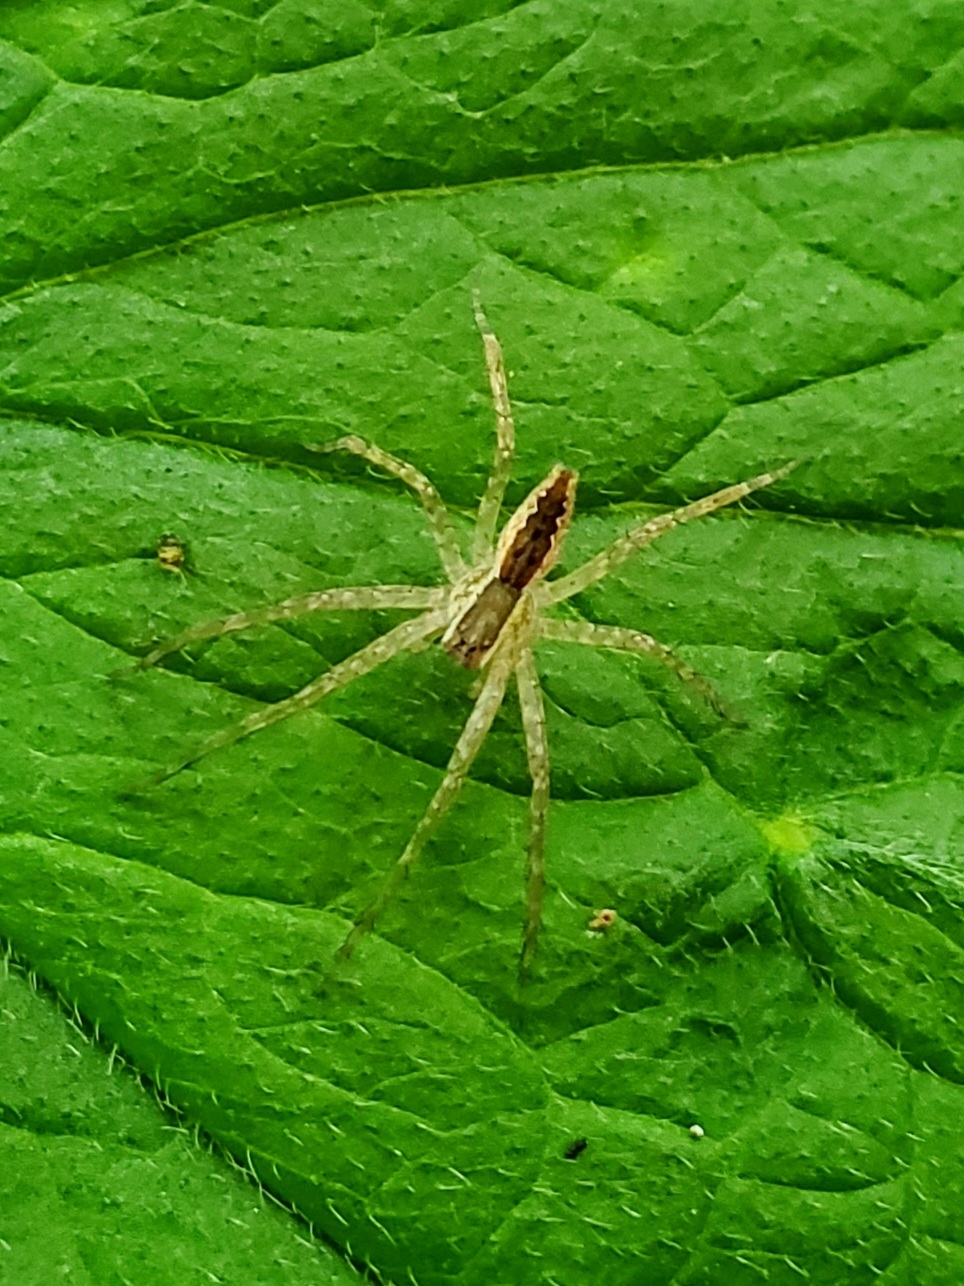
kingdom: Animalia
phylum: Arthropoda
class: Arachnida
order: Araneae
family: Pisauridae
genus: Pisaurina
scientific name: Pisaurina mira
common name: American nursery web spider
